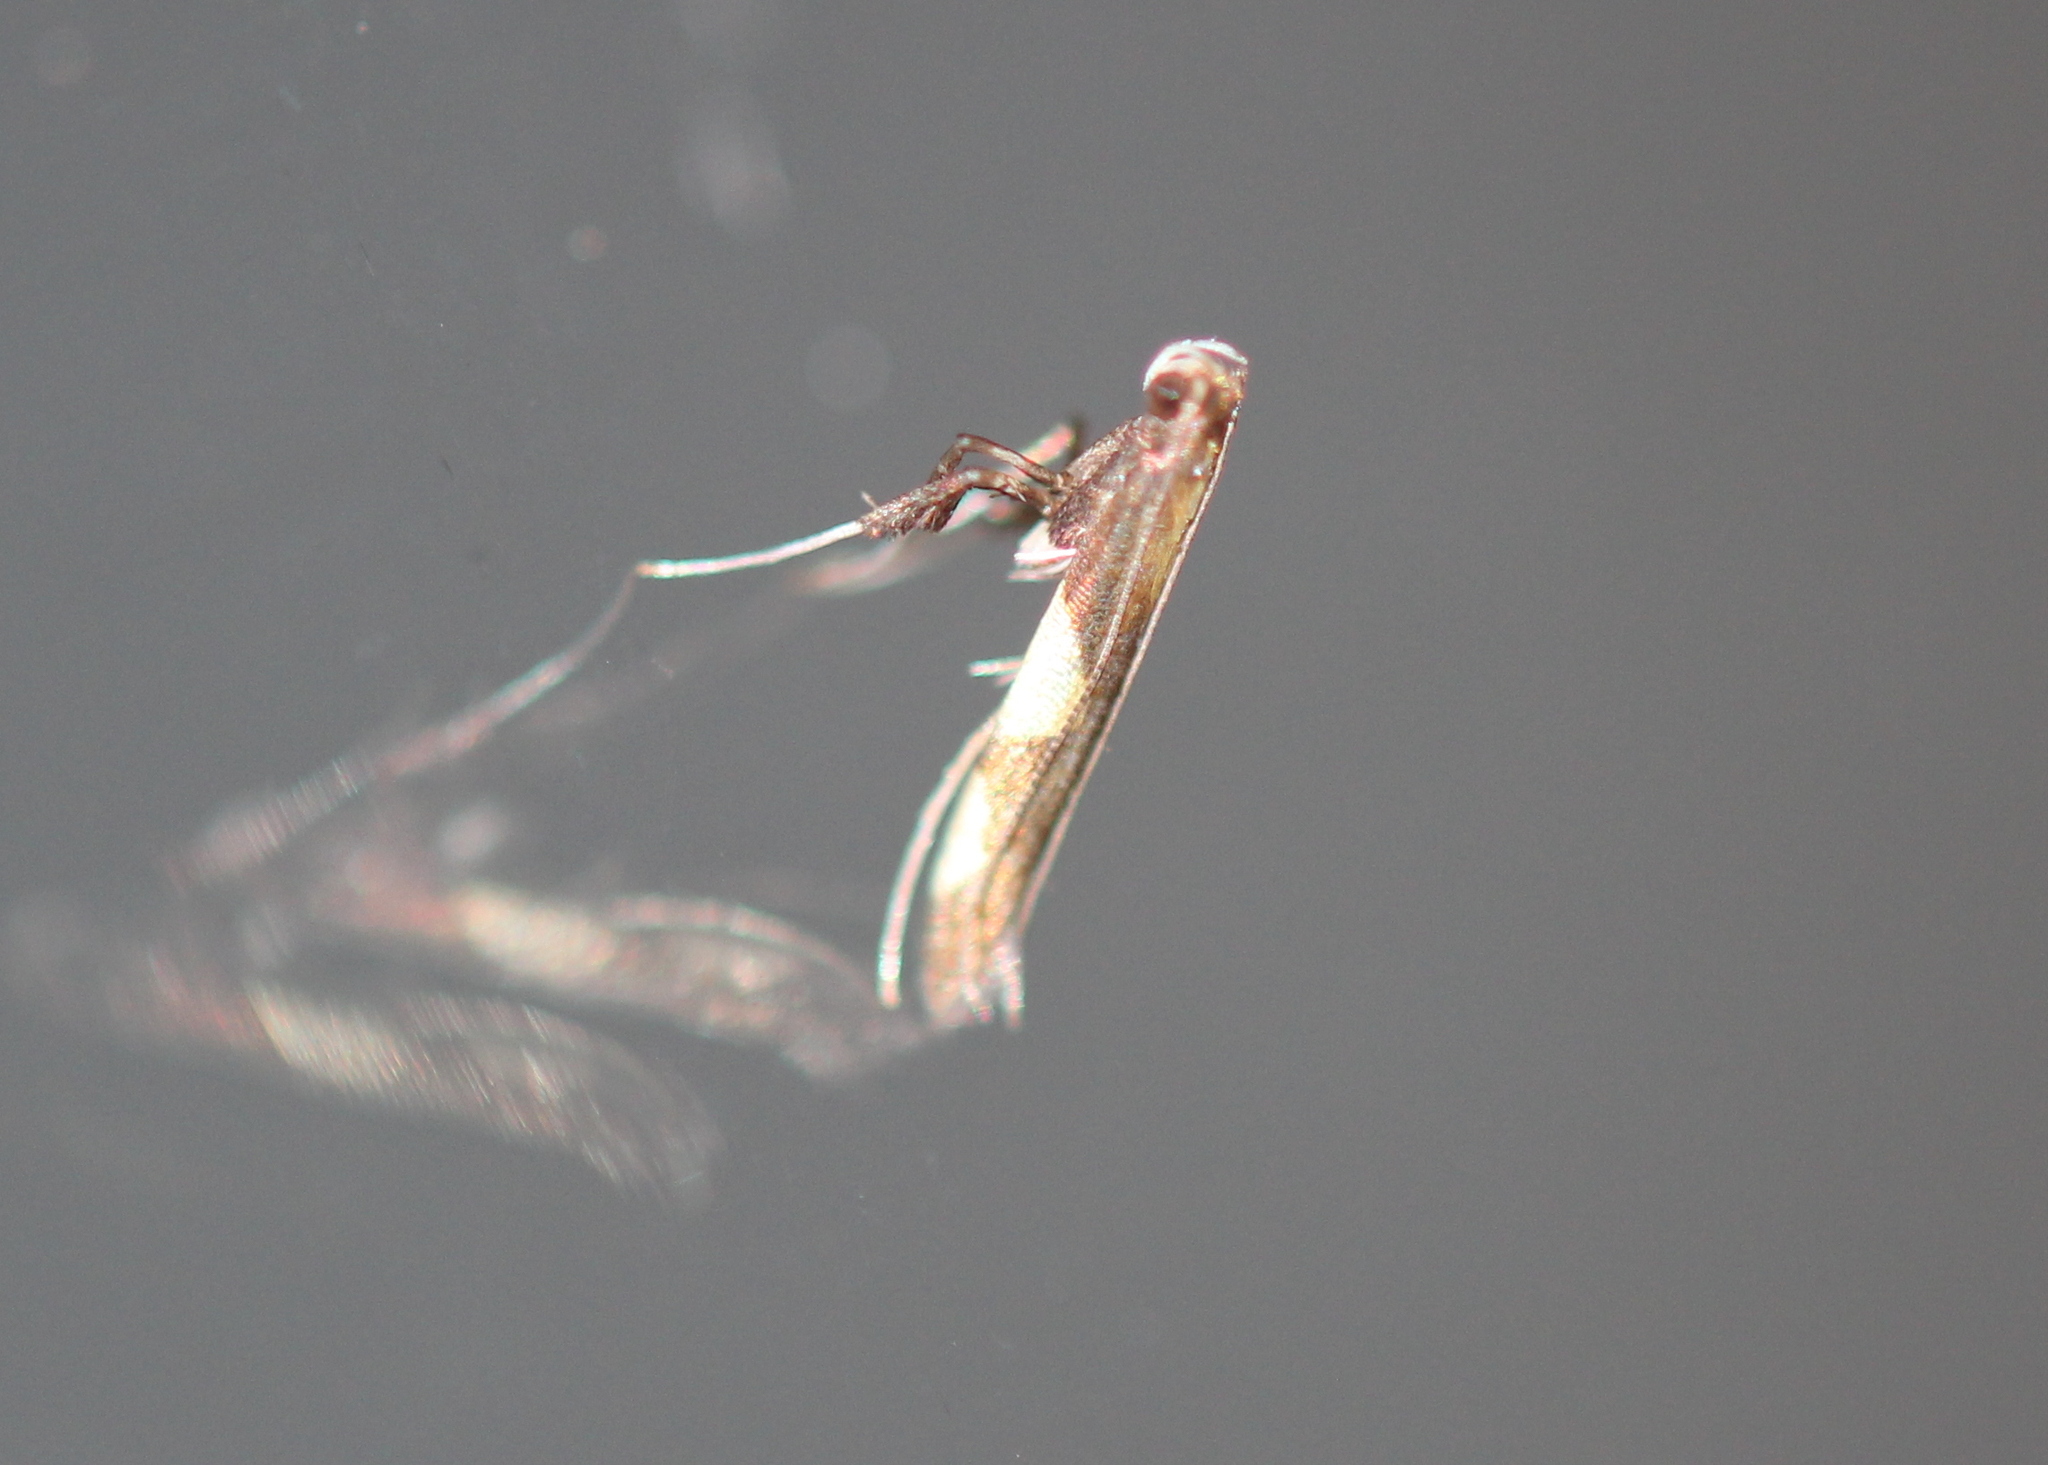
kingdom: Animalia
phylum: Arthropoda
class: Insecta
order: Lepidoptera
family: Gracillariidae
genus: Caloptilia
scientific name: Caloptilia bimaculatella
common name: Maple caloptilia moth
